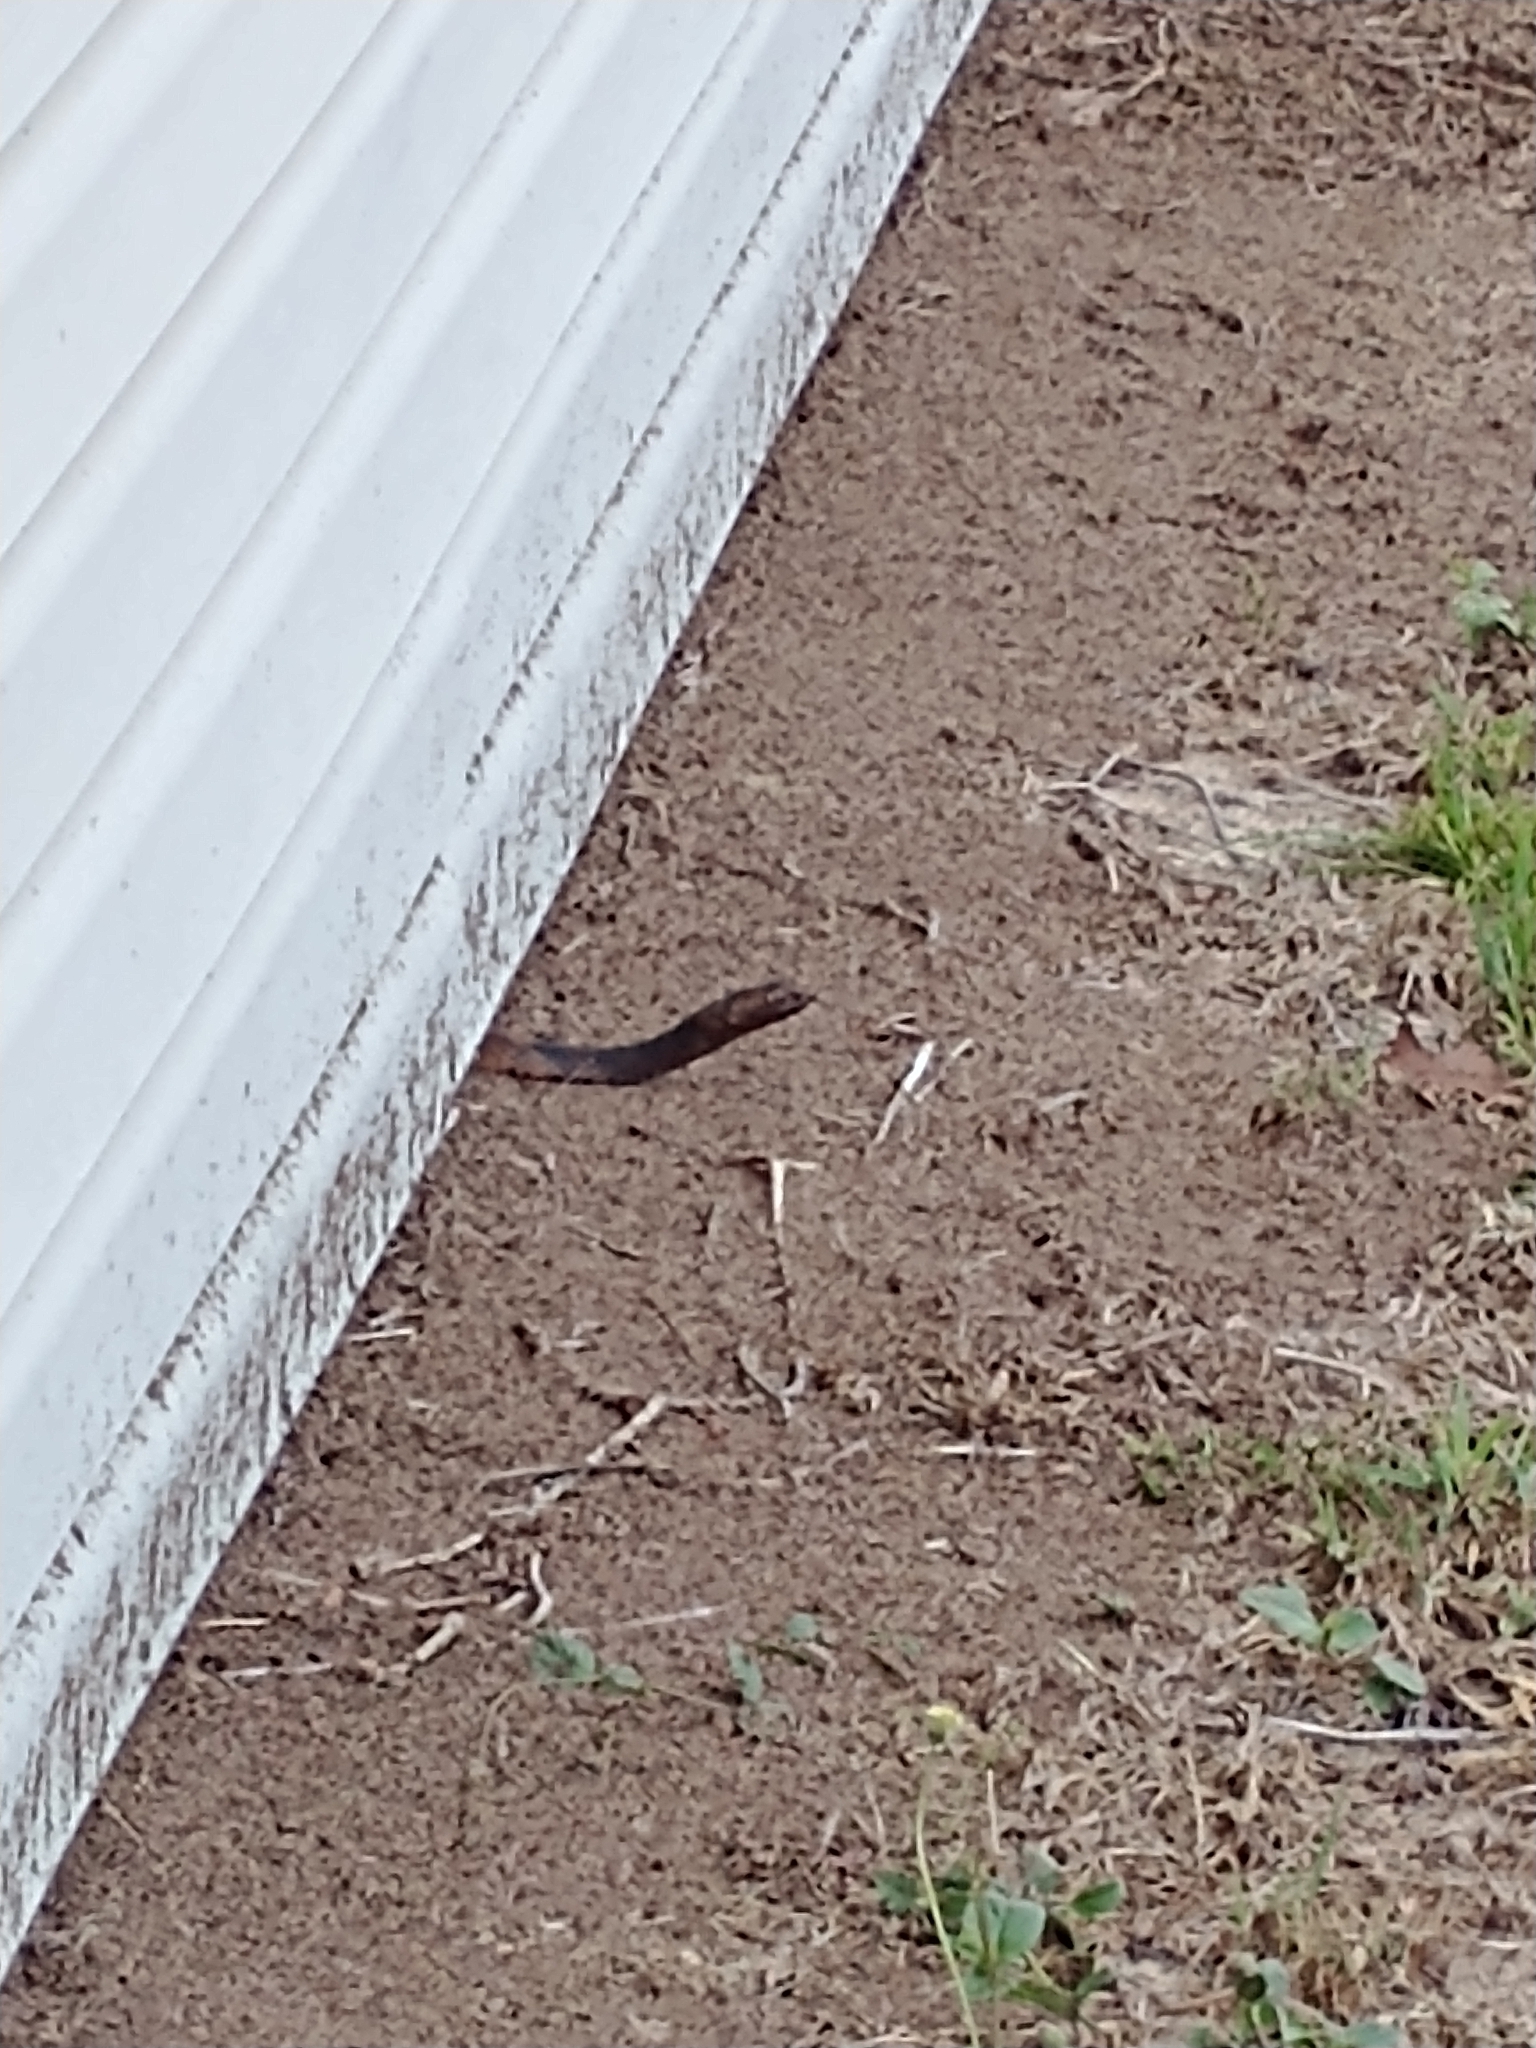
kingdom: Animalia
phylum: Chordata
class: Squamata
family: Colubridae
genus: Masticophis
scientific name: Masticophis flagellum
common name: Coachwhip
